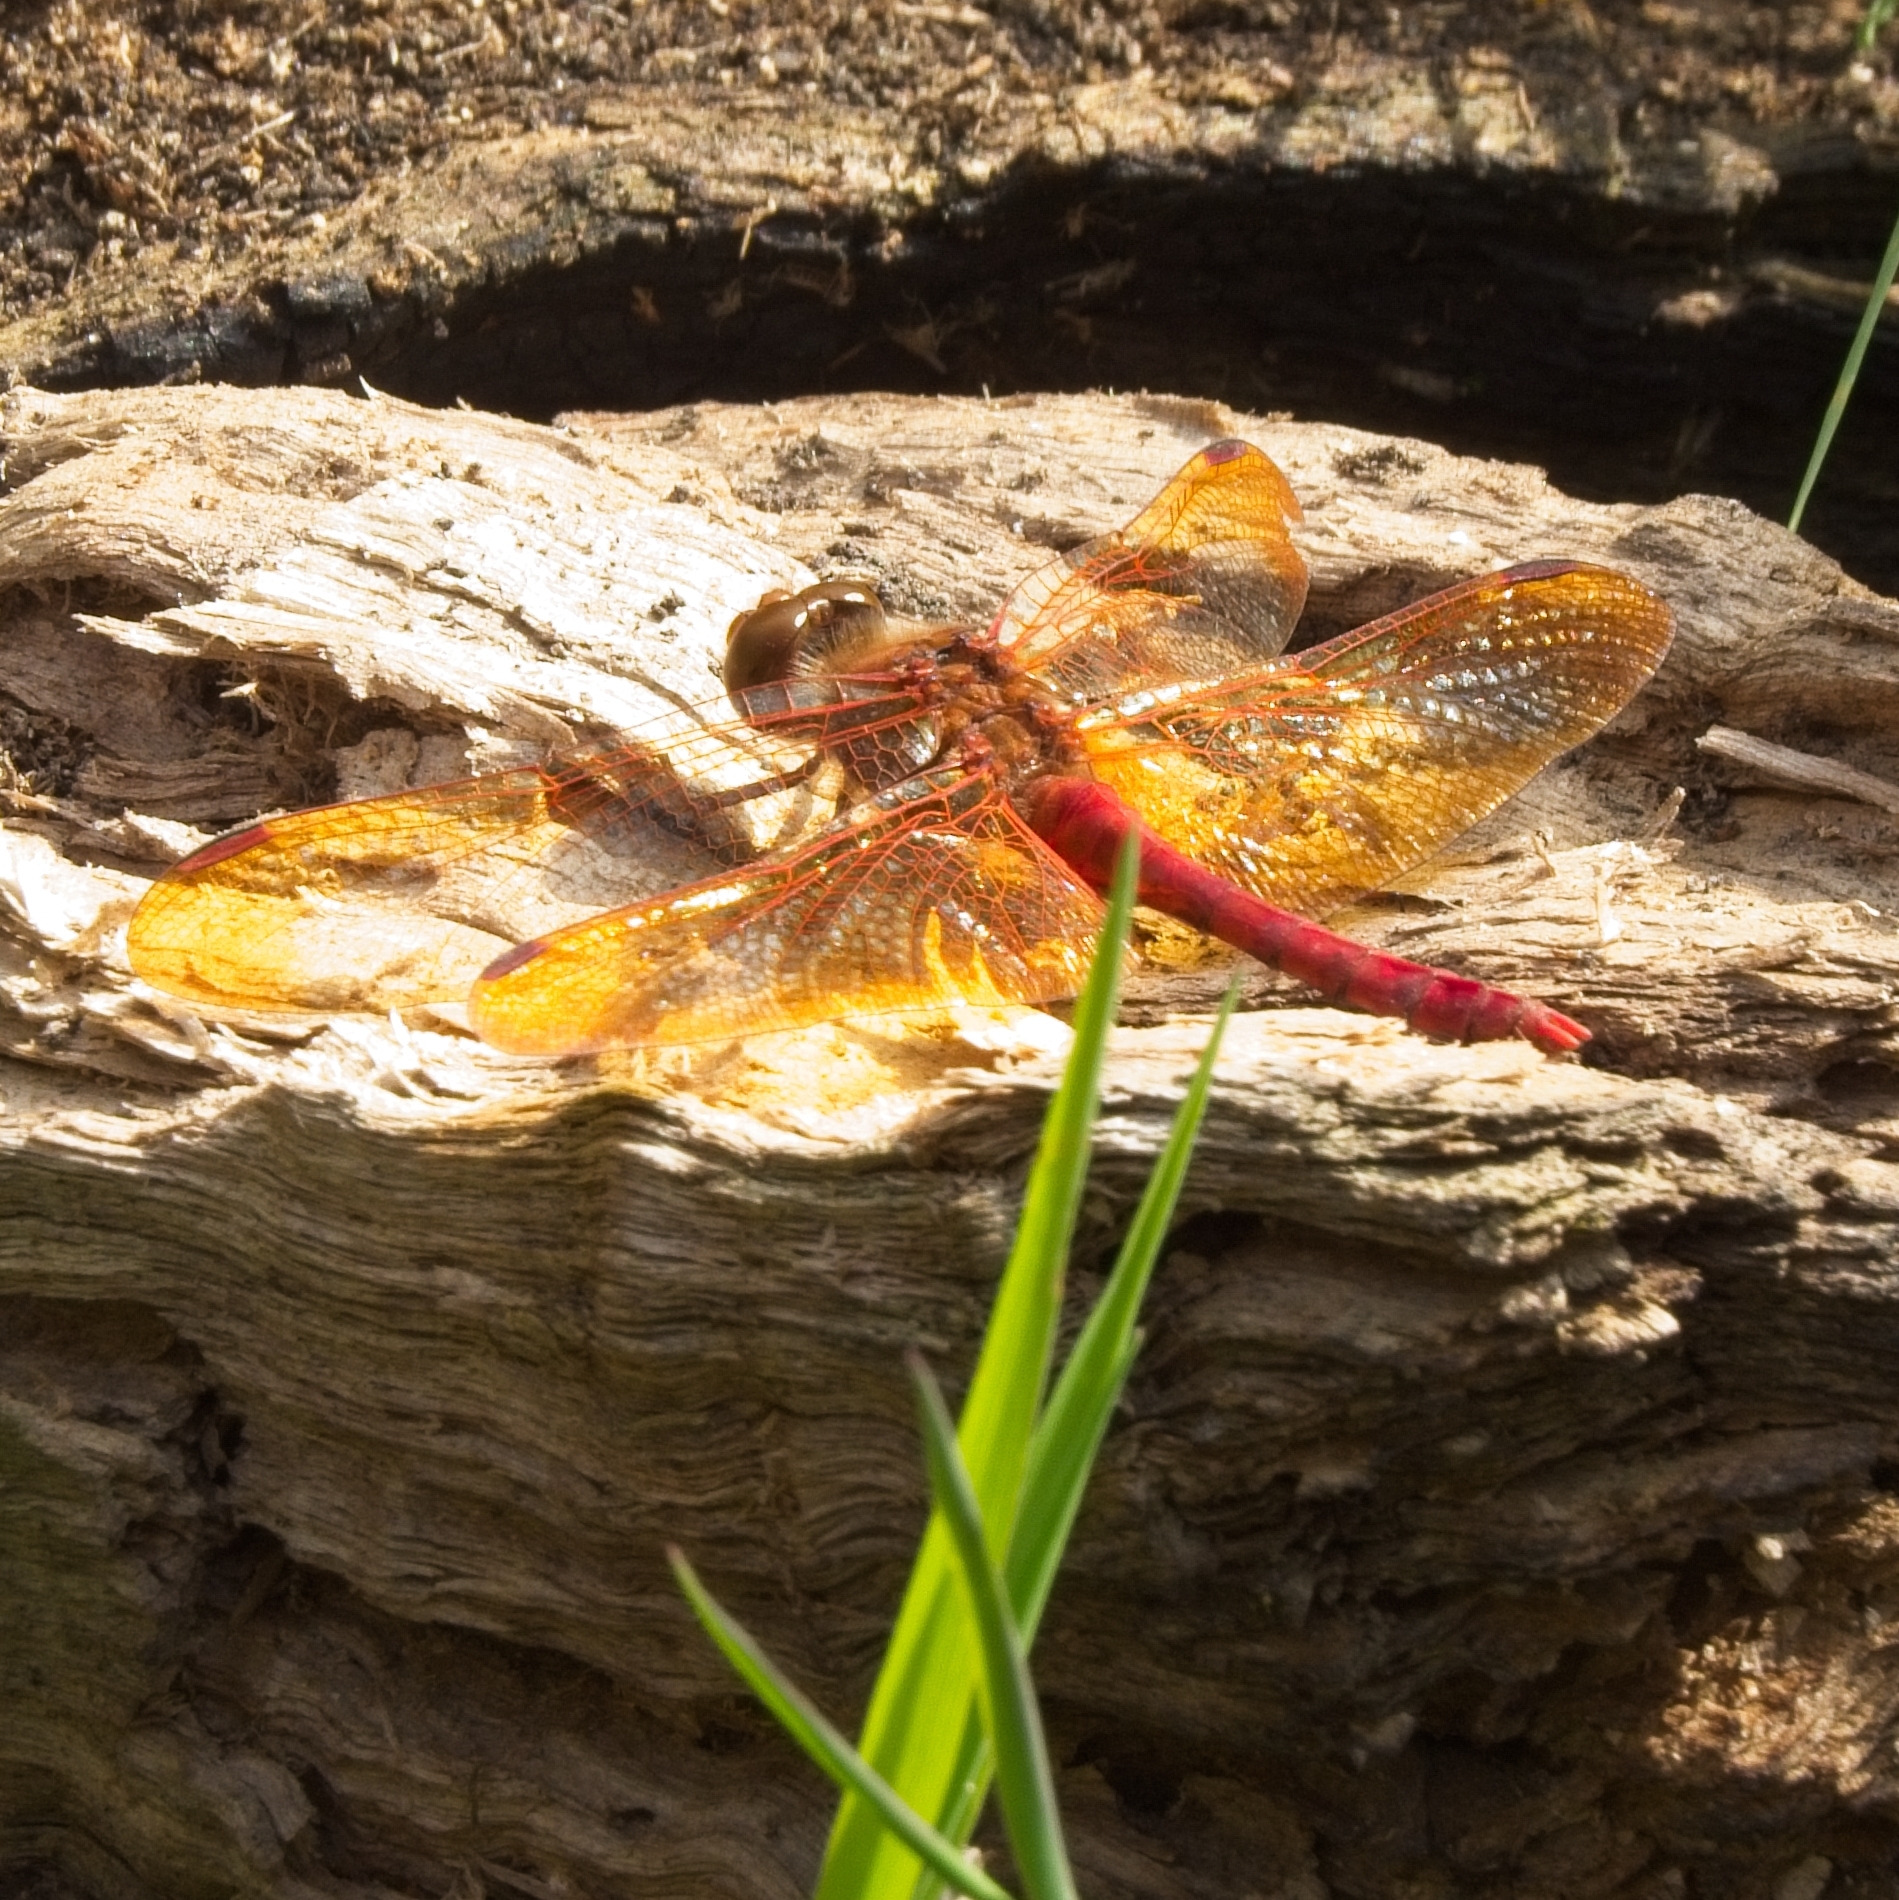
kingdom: Animalia
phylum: Arthropoda
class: Insecta
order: Odonata
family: Libellulidae
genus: Sympetrum
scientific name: Sympetrum croceolum
